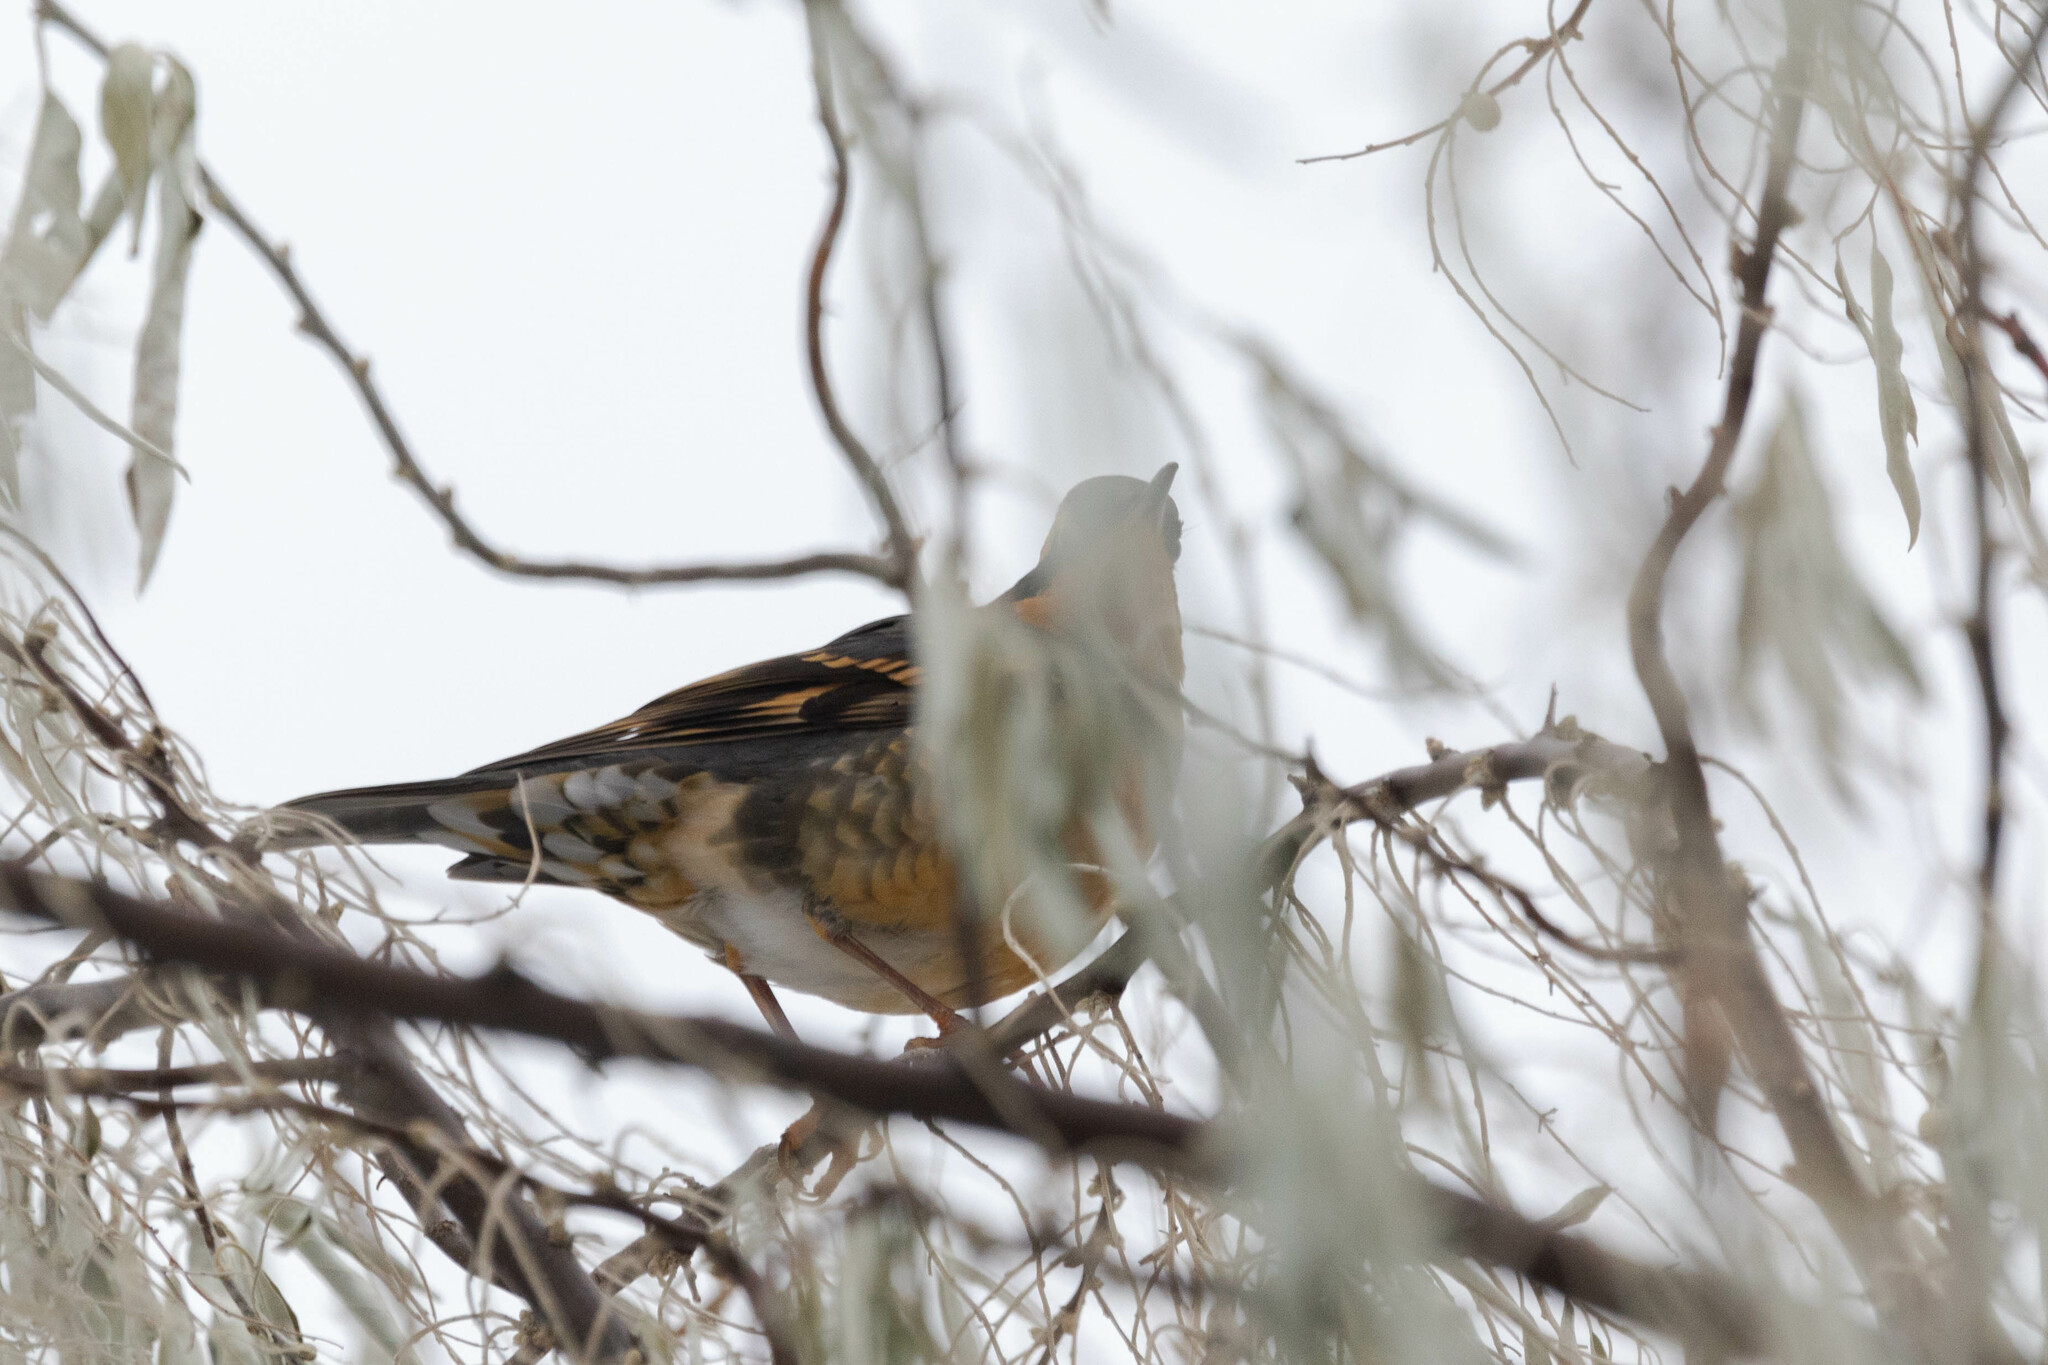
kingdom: Animalia
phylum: Chordata
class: Aves
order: Passeriformes
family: Turdidae
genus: Ixoreus
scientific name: Ixoreus naevius
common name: Varied thrush
